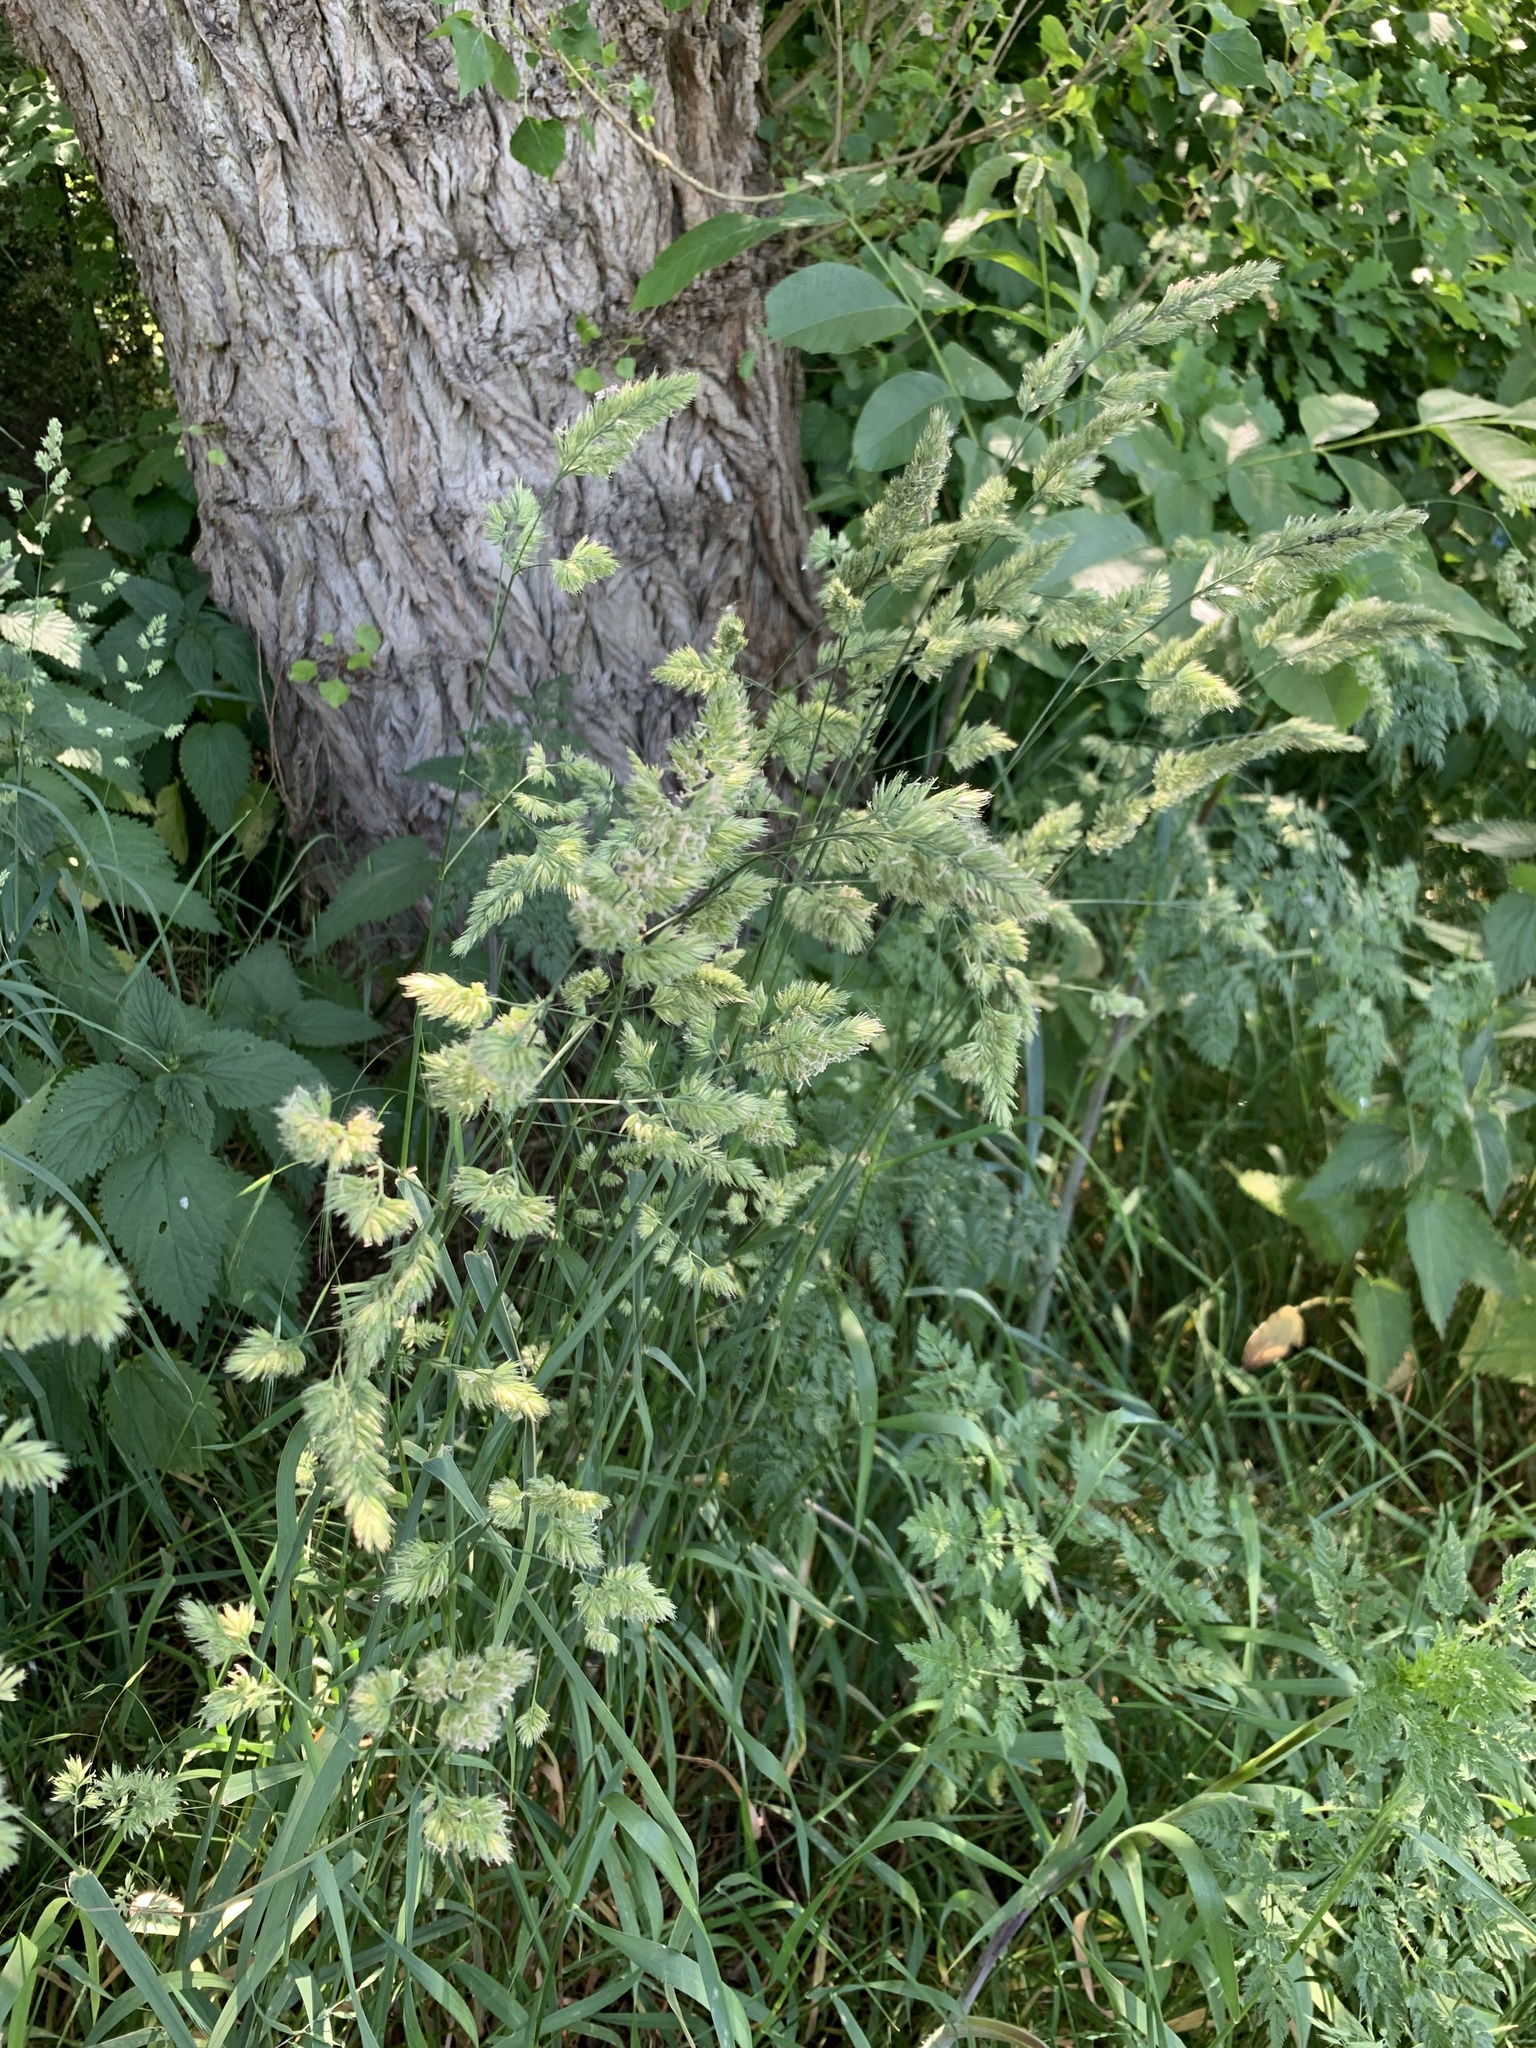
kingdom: Plantae
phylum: Tracheophyta
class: Liliopsida
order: Poales
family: Poaceae
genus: Dactylis
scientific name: Dactylis glomerata
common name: Orchardgrass
